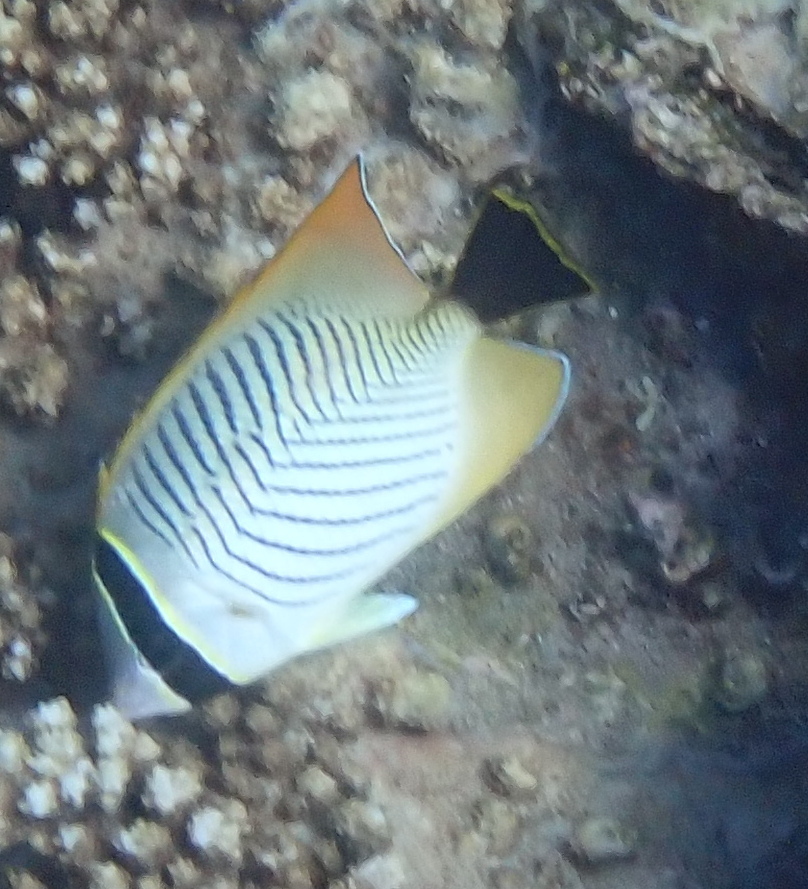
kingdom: Animalia
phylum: Chordata
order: Perciformes
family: Chaetodontidae
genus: Chaetodon
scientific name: Chaetodon trifascialis
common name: Chevroned butterflyfish
